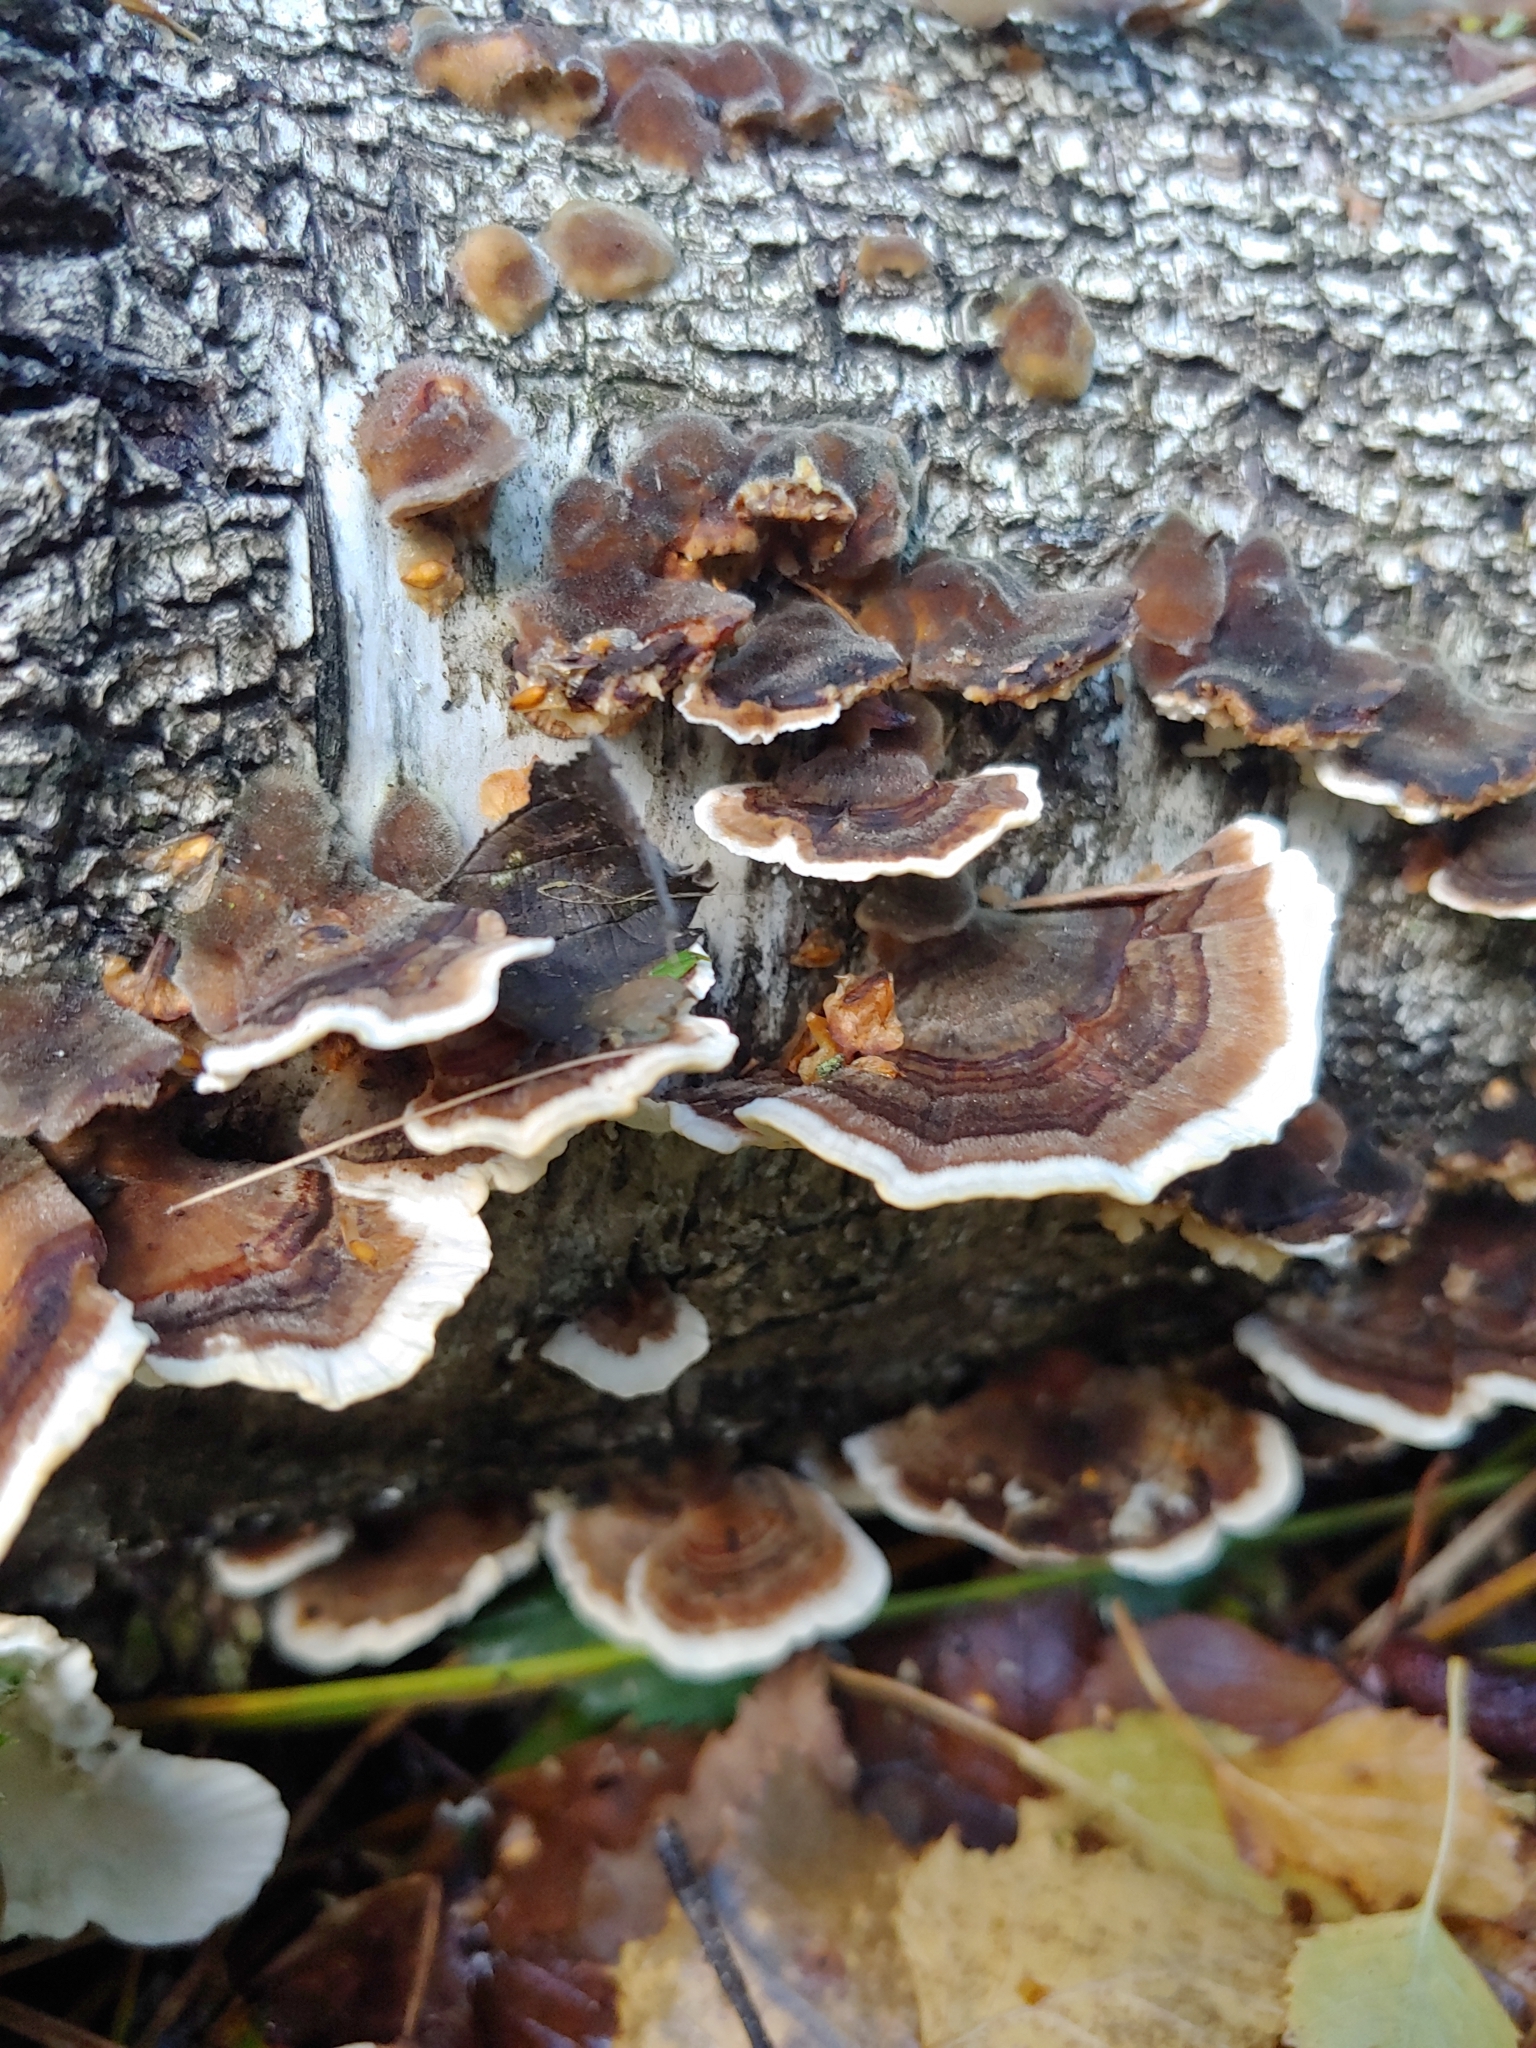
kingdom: Fungi
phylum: Basidiomycota
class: Agaricomycetes
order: Polyporales
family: Polyporaceae
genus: Trametes
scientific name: Trametes versicolor
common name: Turkeytail
